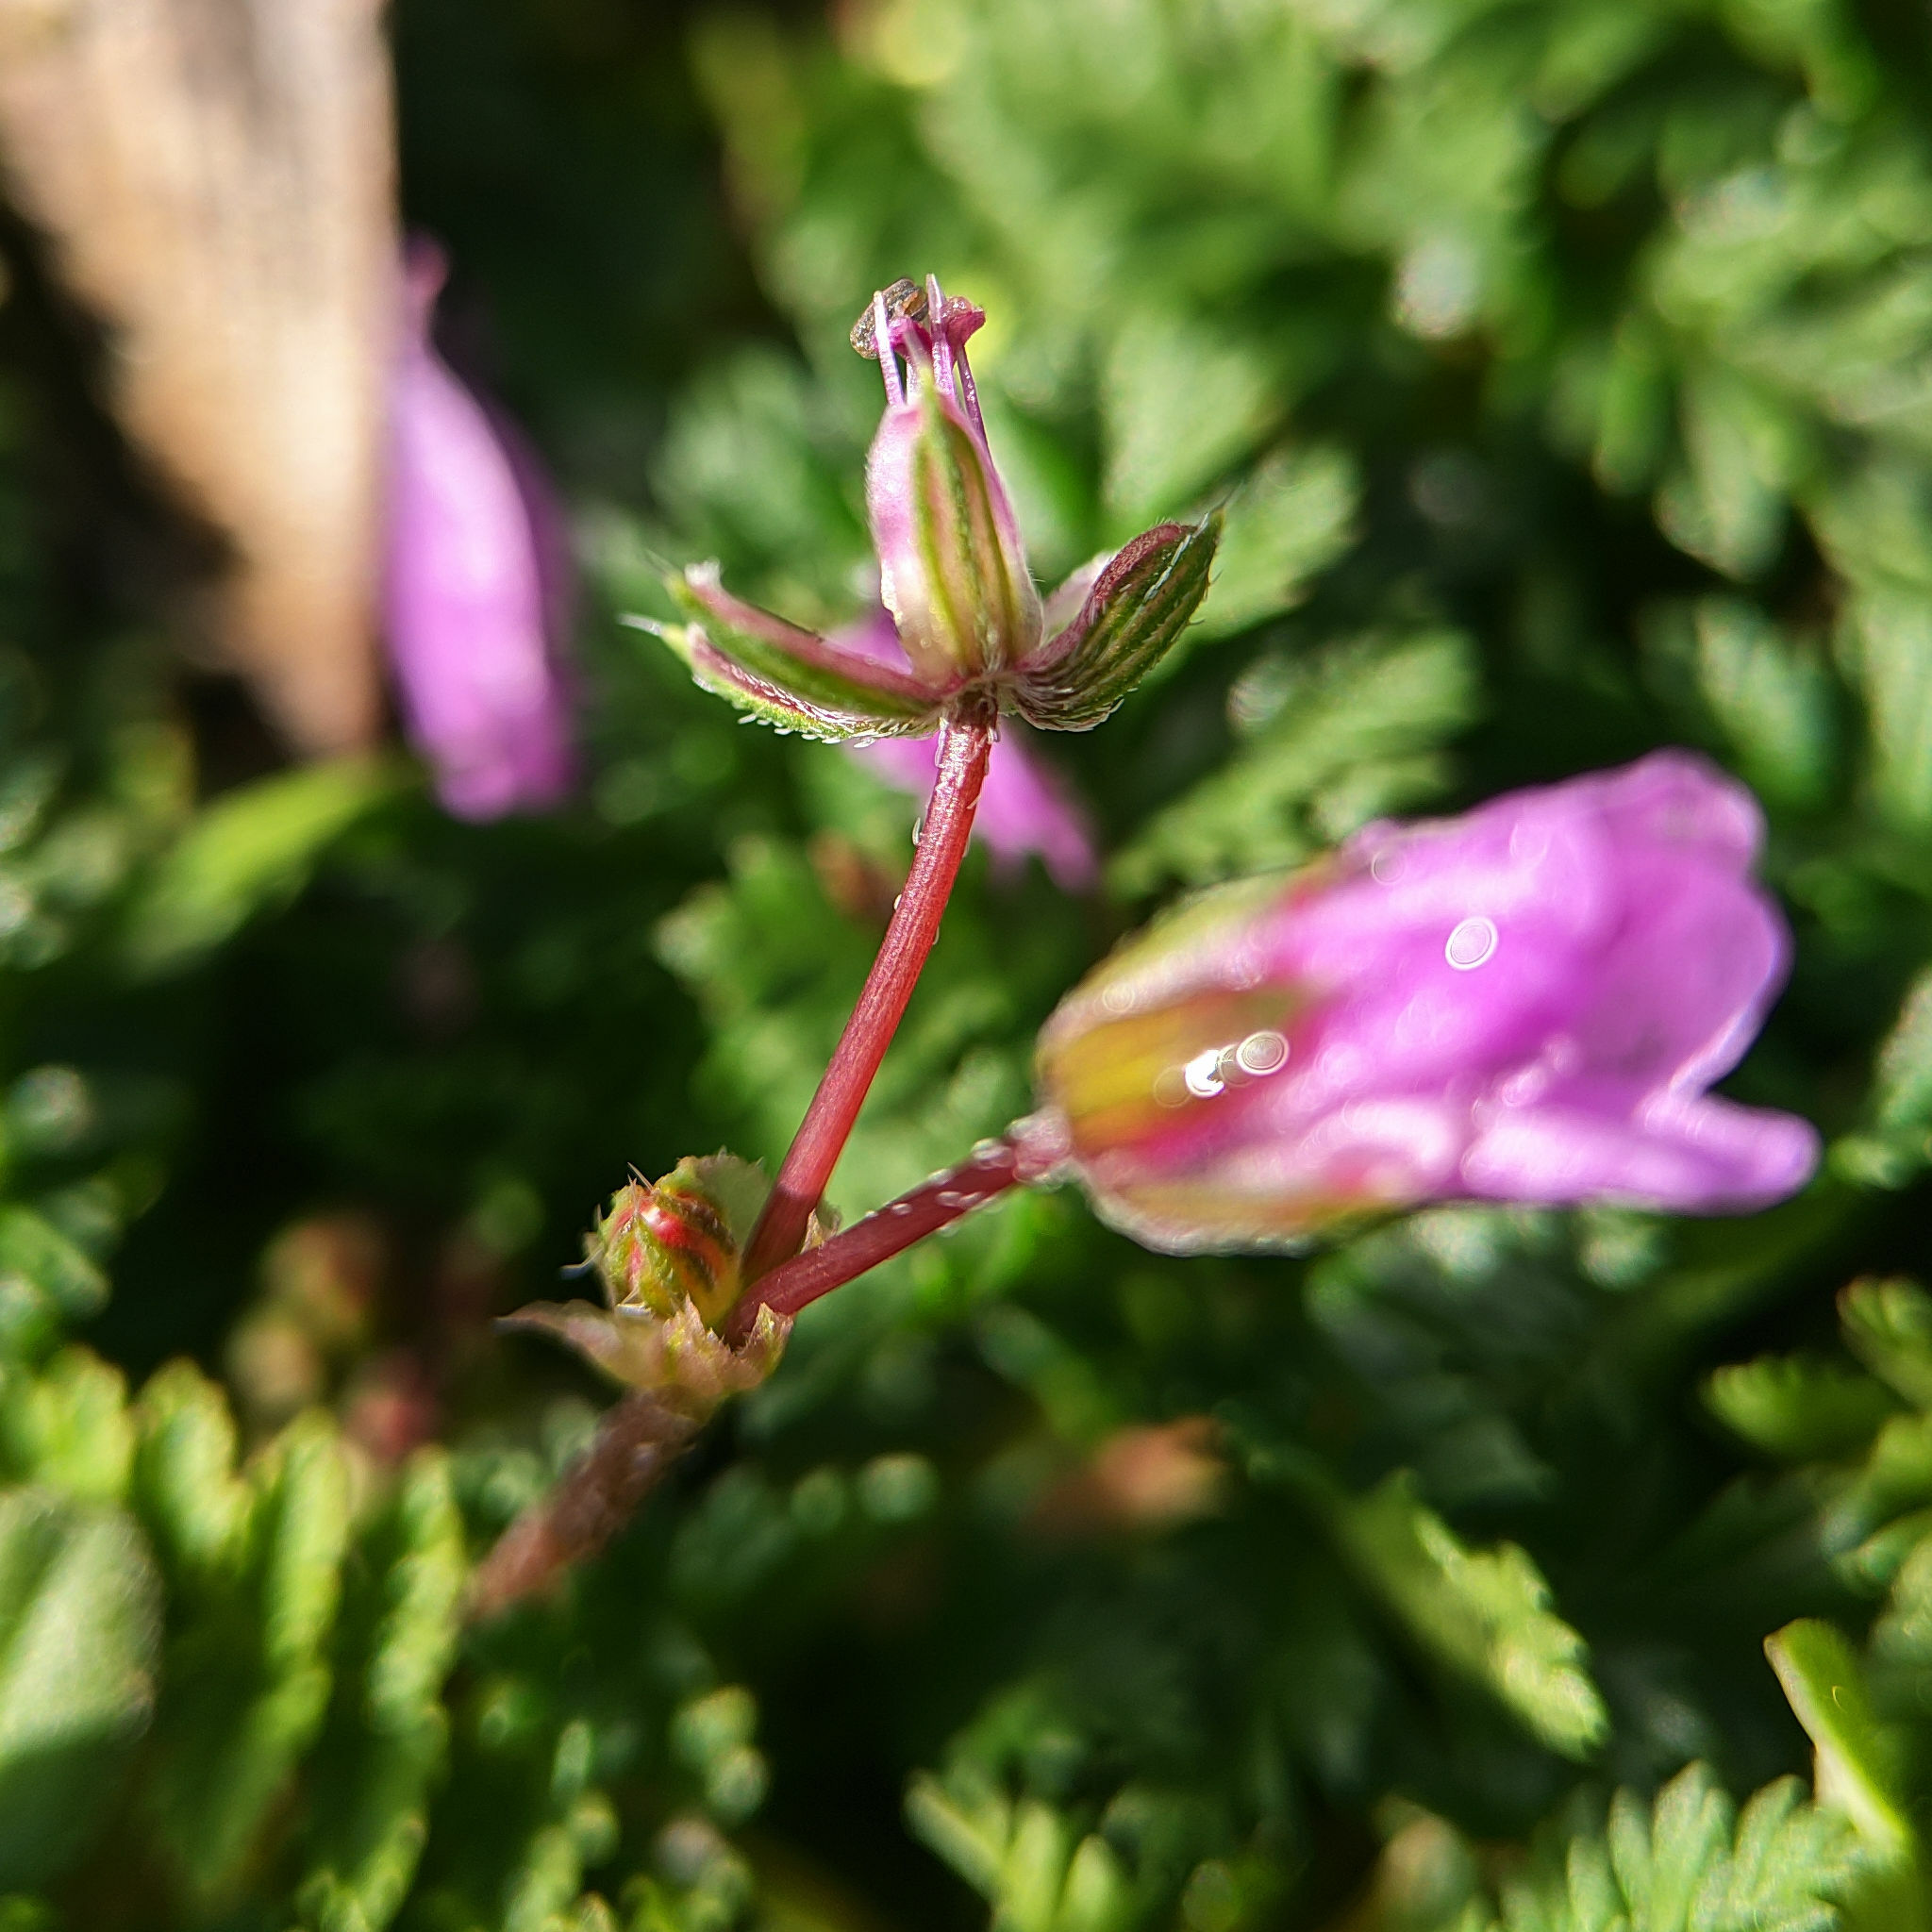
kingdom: Plantae
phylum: Tracheophyta
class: Magnoliopsida
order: Geraniales
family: Geraniaceae
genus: Erodium
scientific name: Erodium cicutarium
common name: Common stork's-bill
